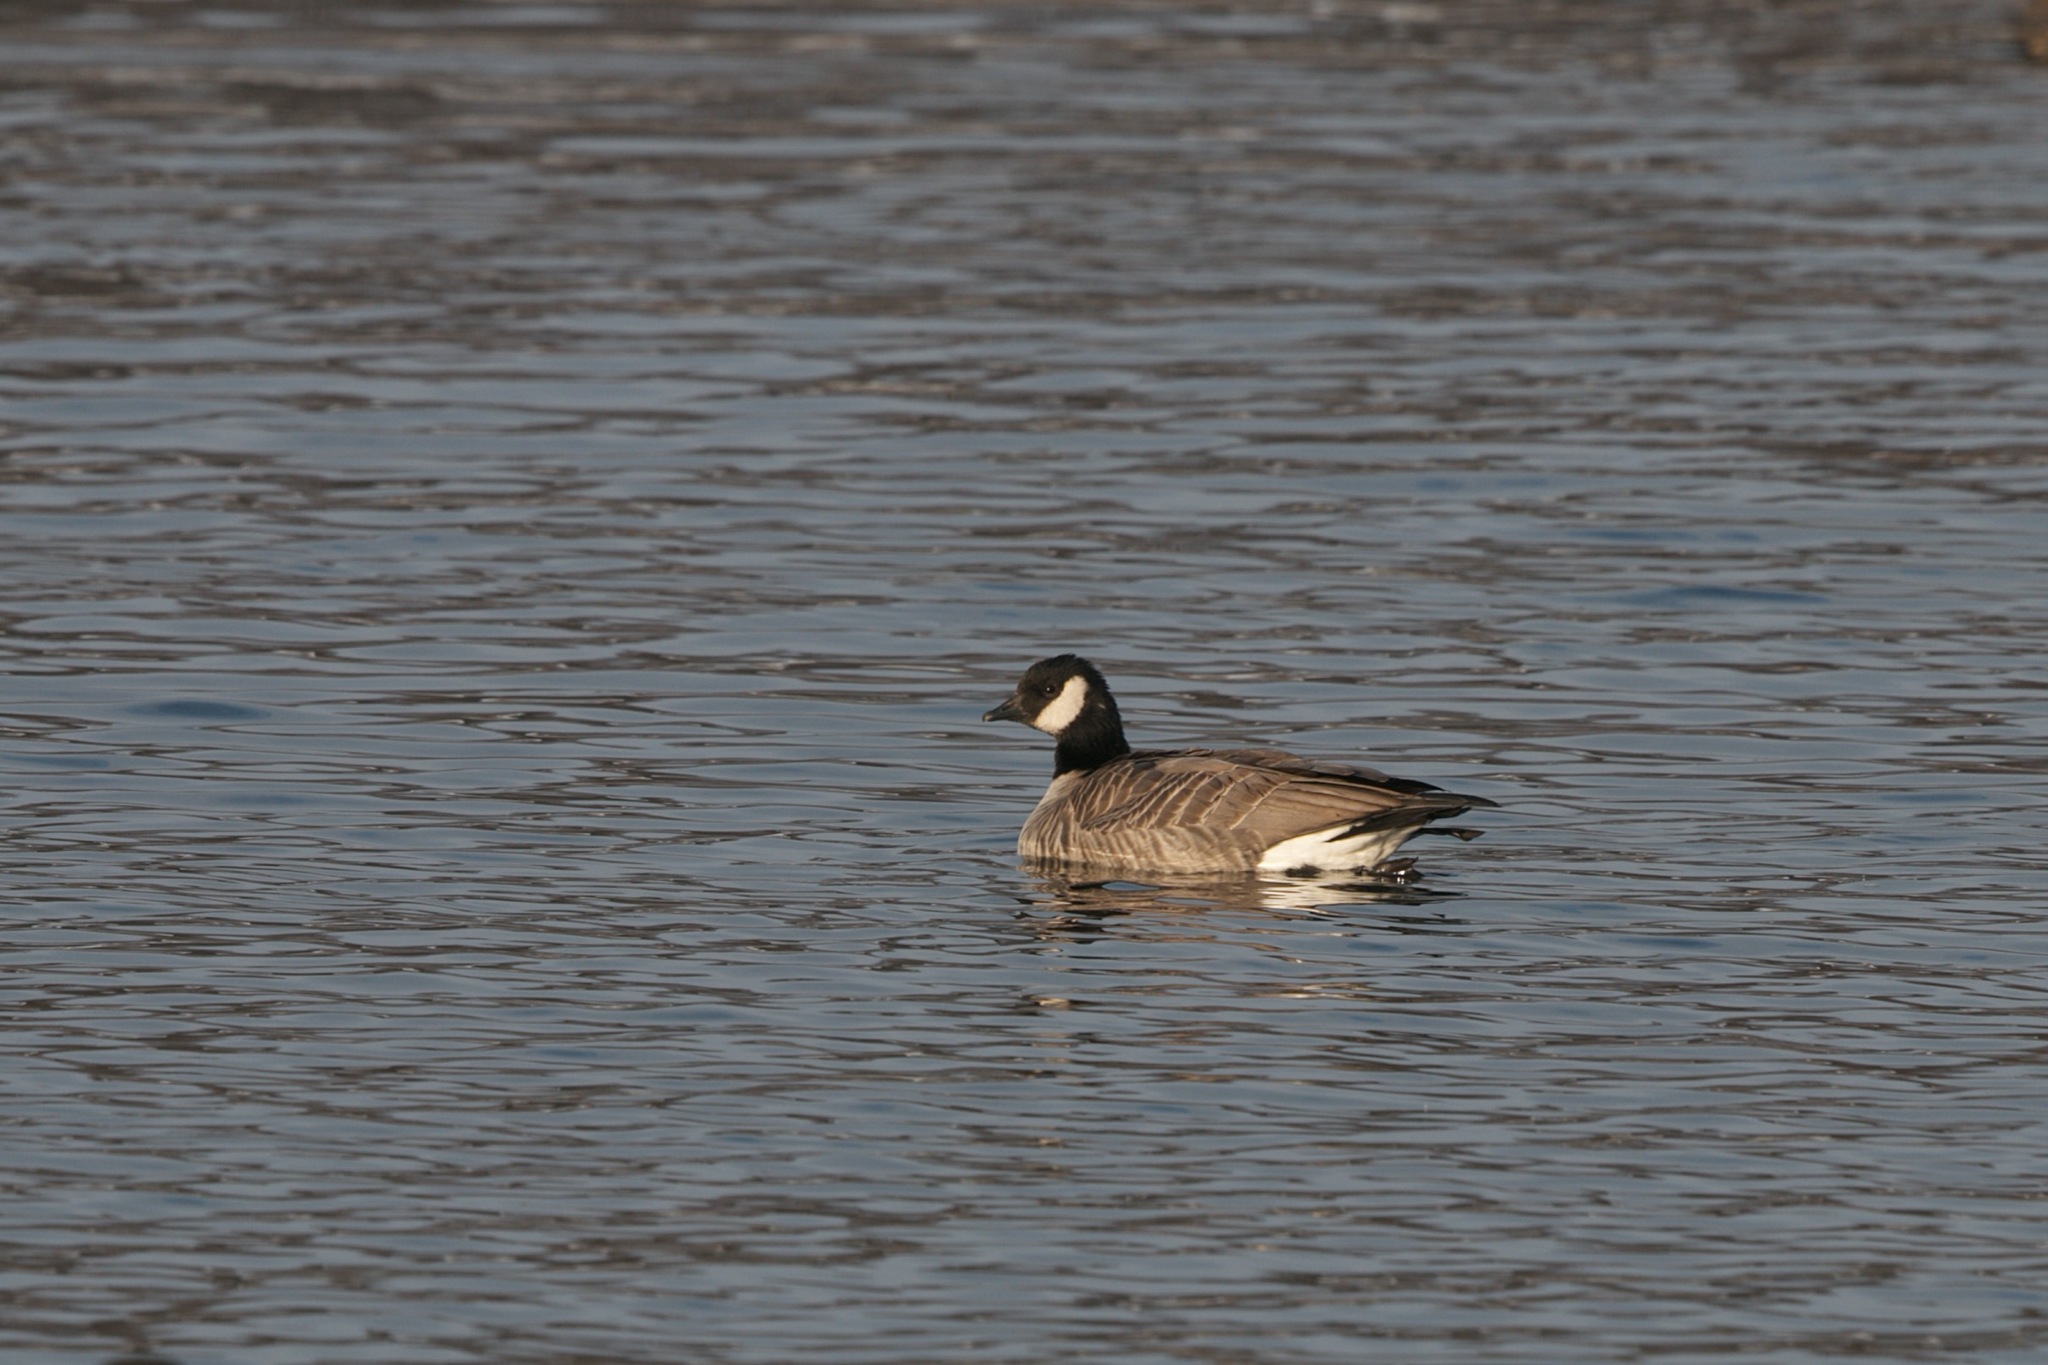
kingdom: Animalia
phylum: Chordata
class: Aves
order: Anseriformes
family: Anatidae
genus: Branta
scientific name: Branta hutchinsii
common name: Cackling goose
